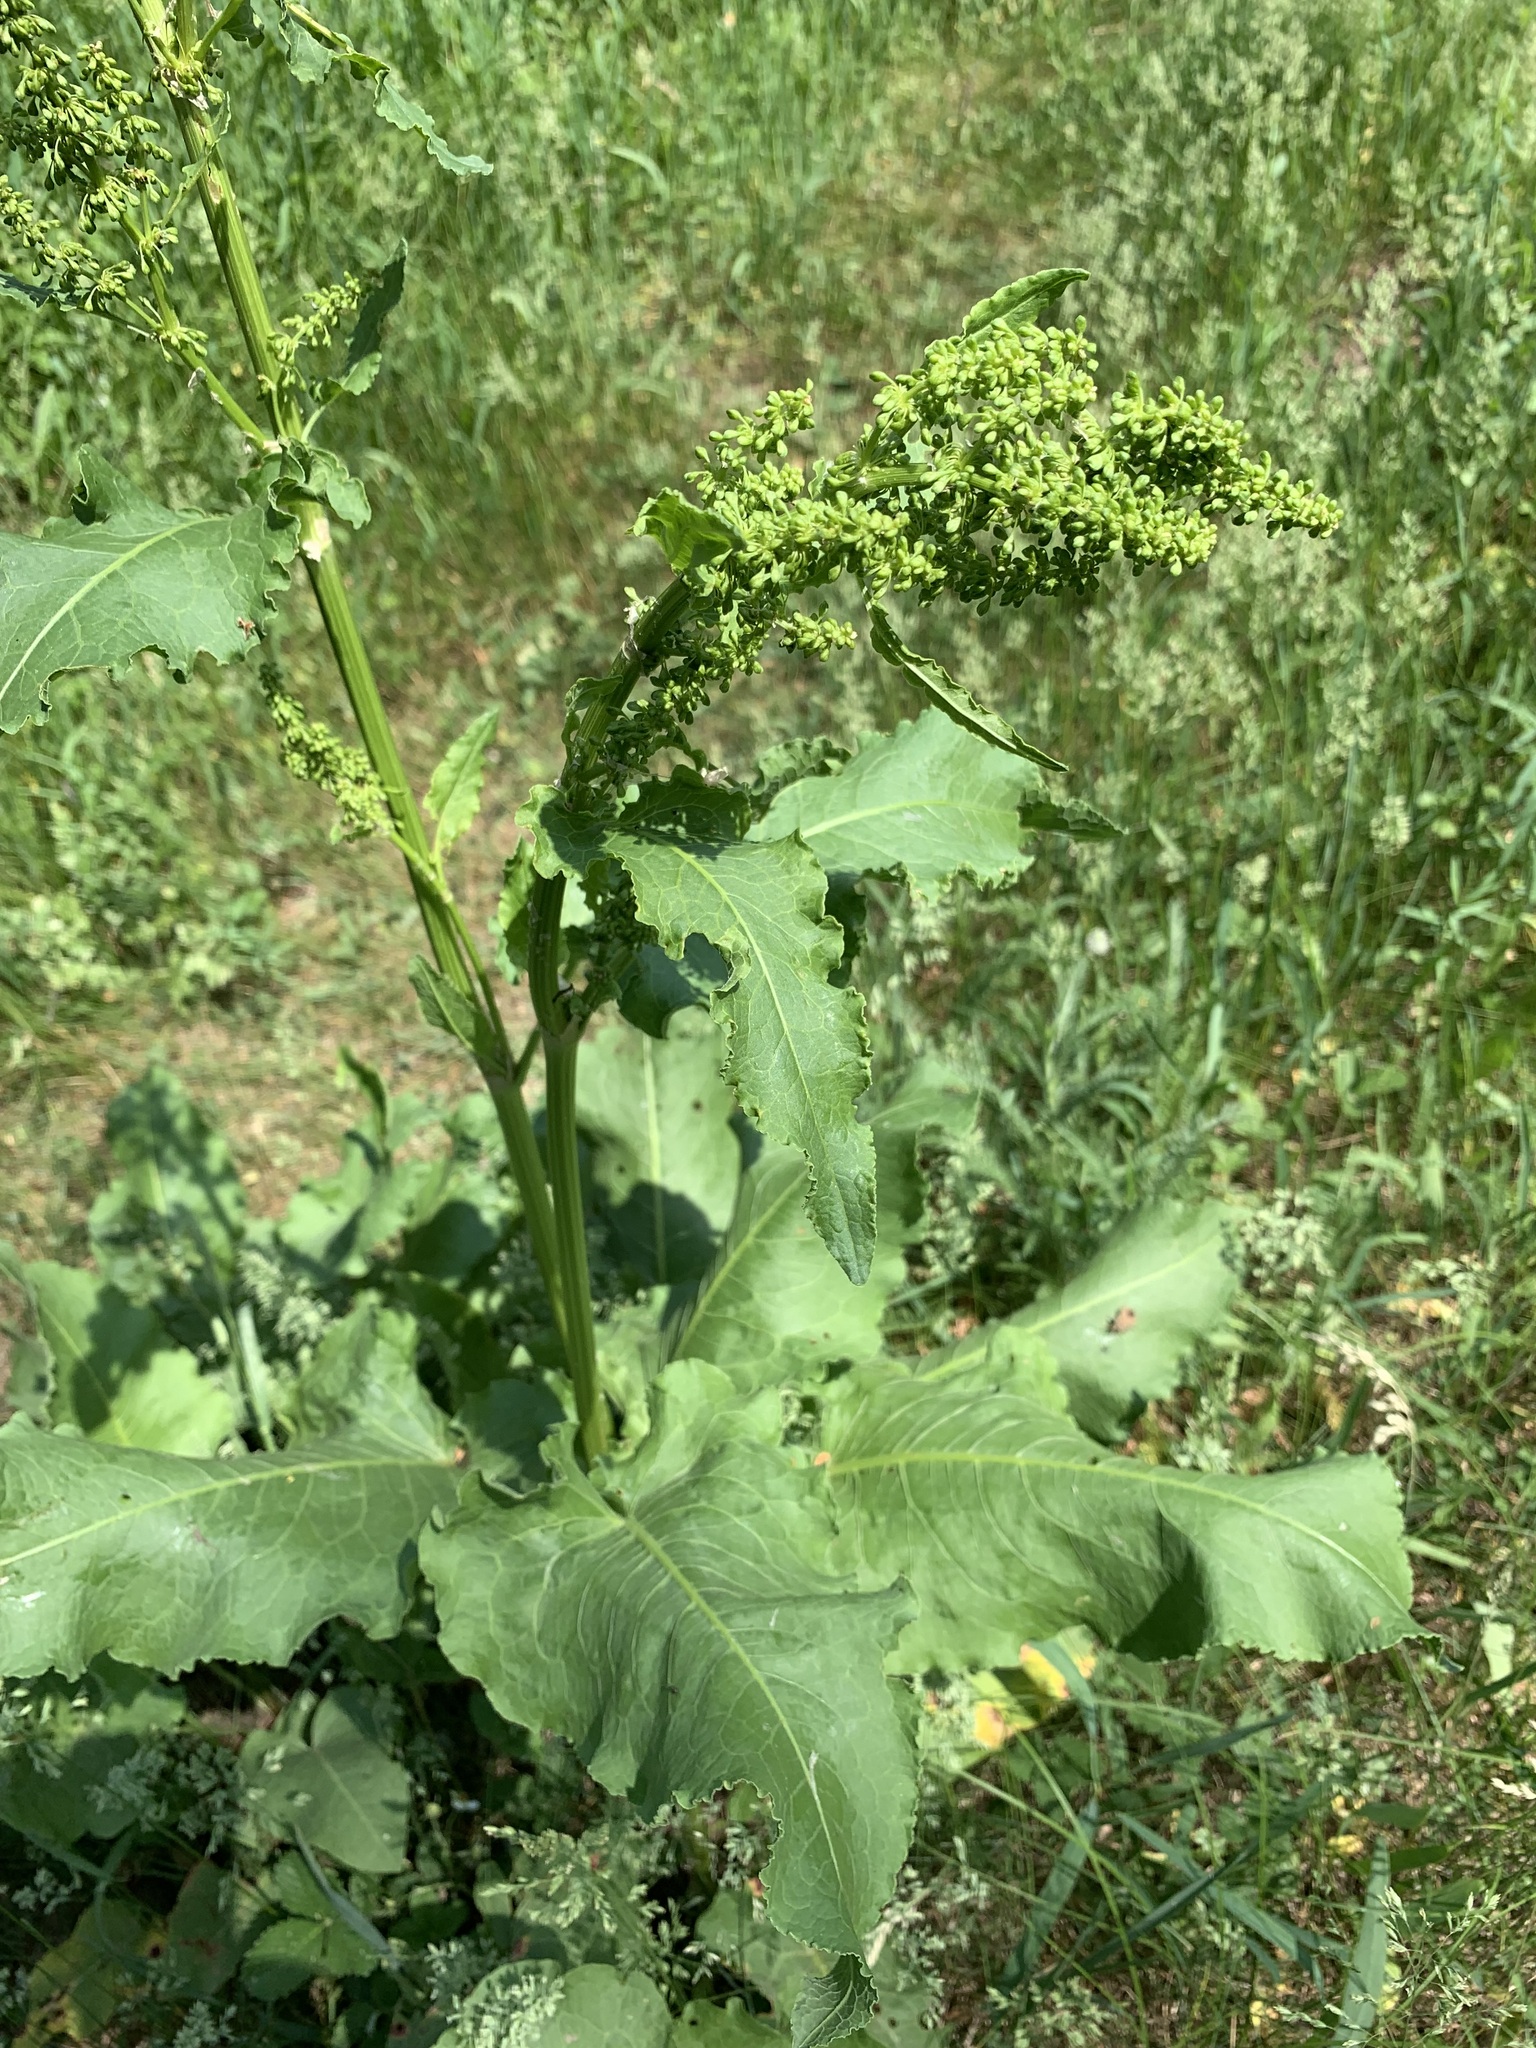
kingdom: Plantae
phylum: Tracheophyta
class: Magnoliopsida
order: Caryophyllales
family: Polygonaceae
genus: Rumex
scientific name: Rumex confertus
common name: Russian dock
